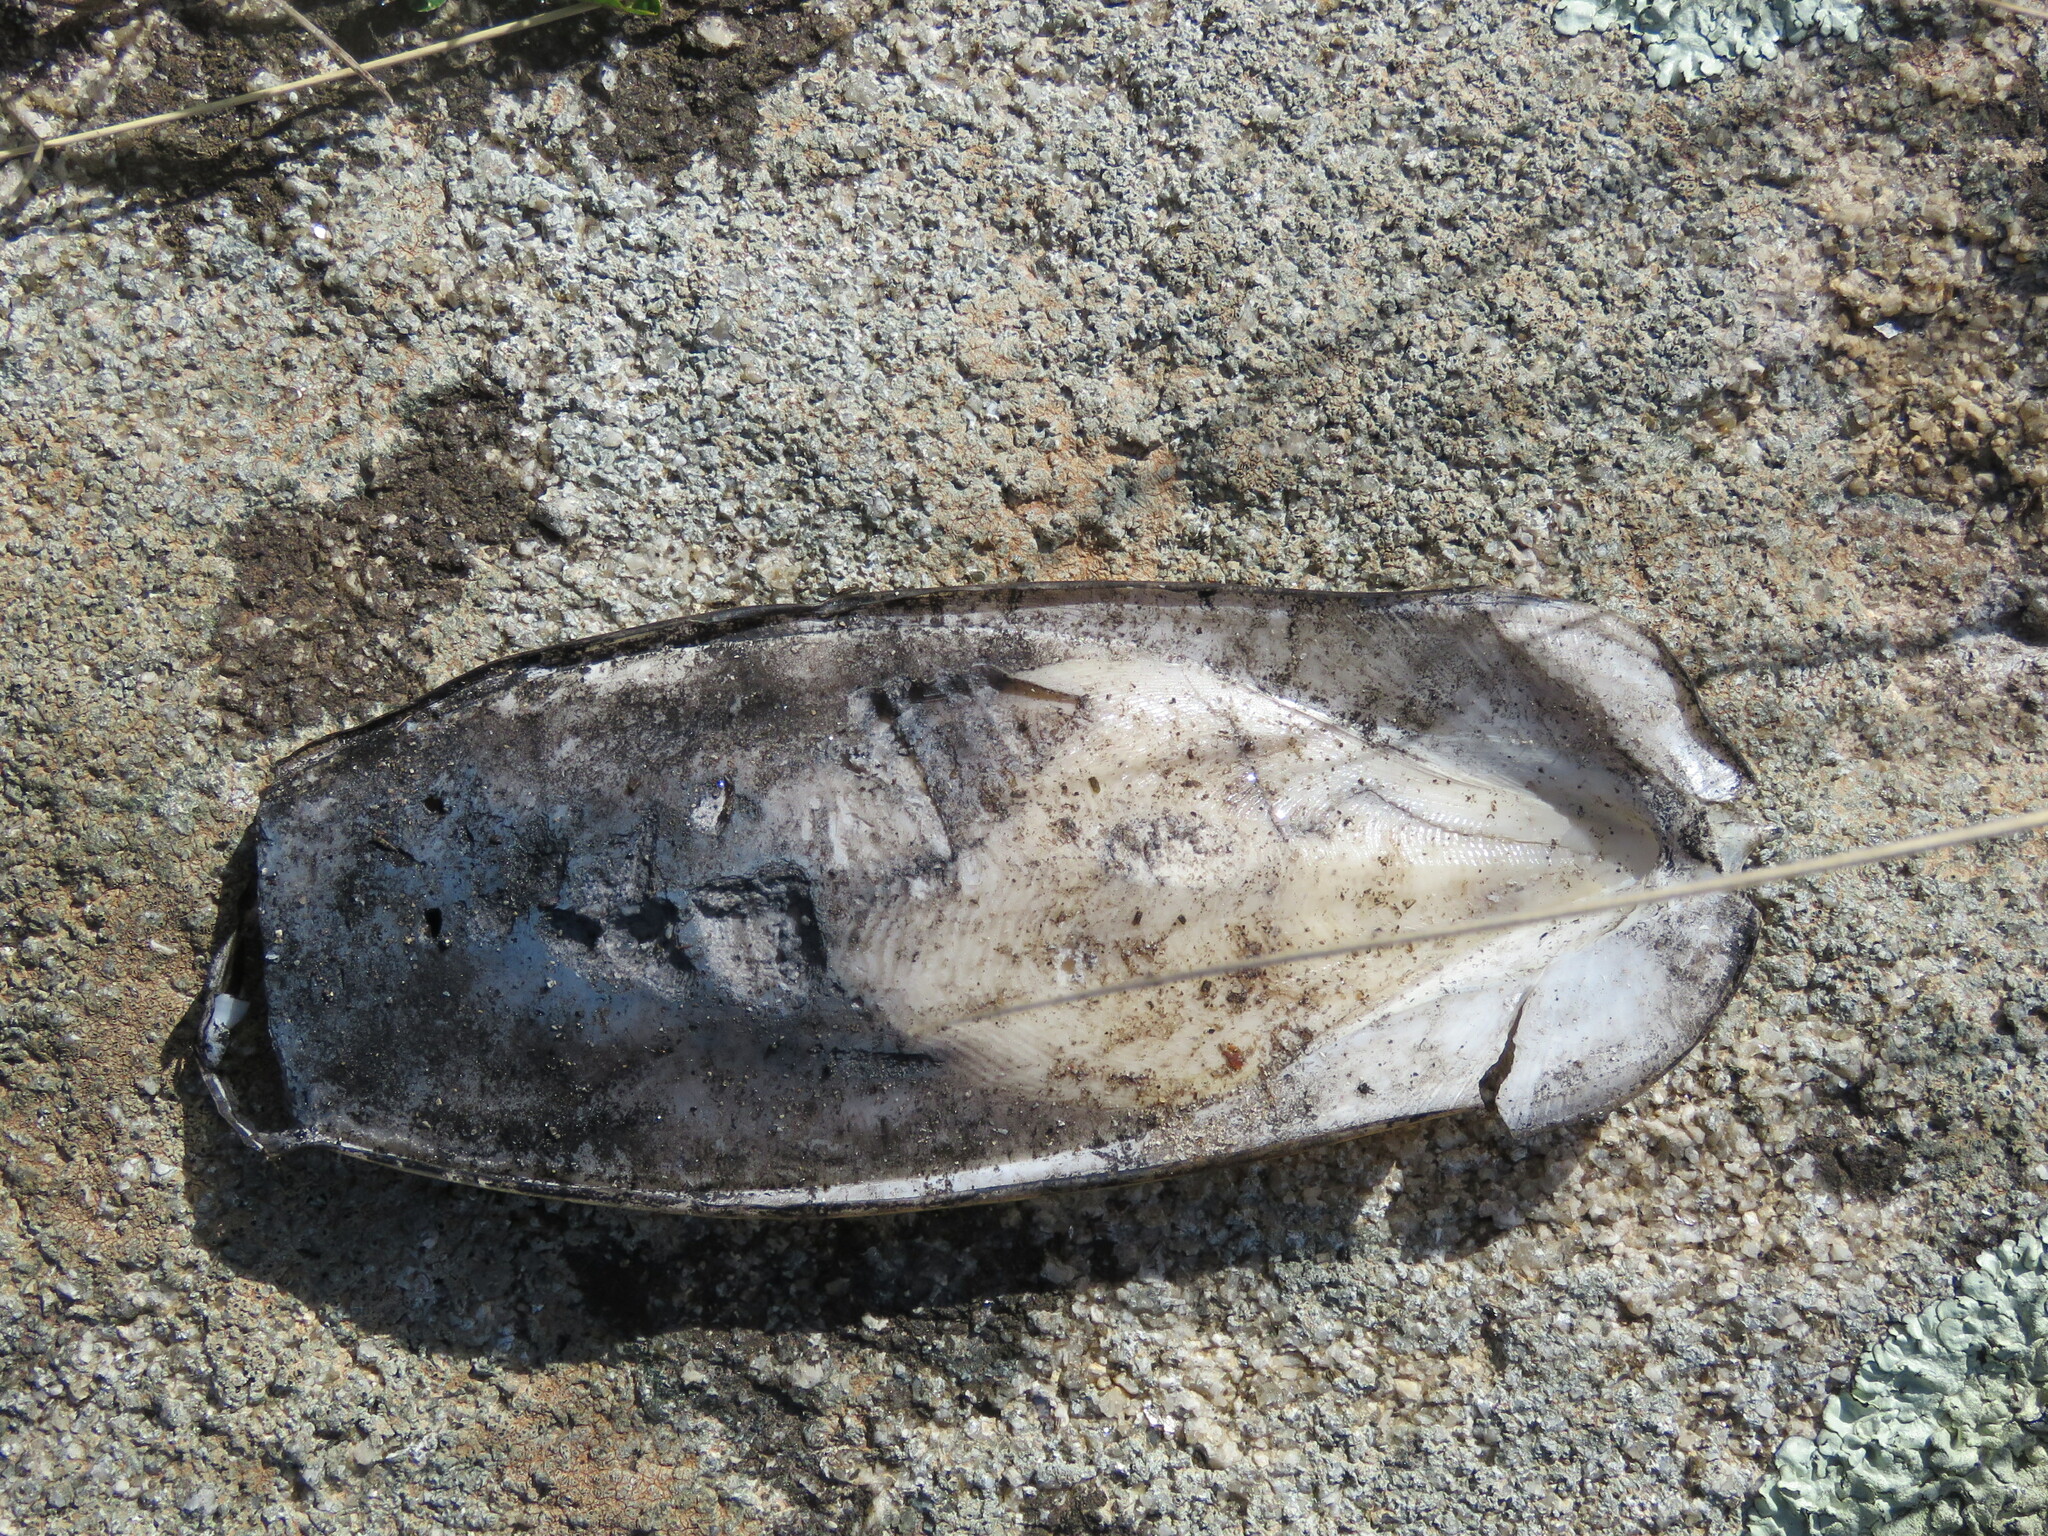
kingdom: Animalia
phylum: Mollusca
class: Cephalopoda
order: Sepiida
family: Sepiidae
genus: Sepia
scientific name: Sepia officinalis
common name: Common cuttlefish
